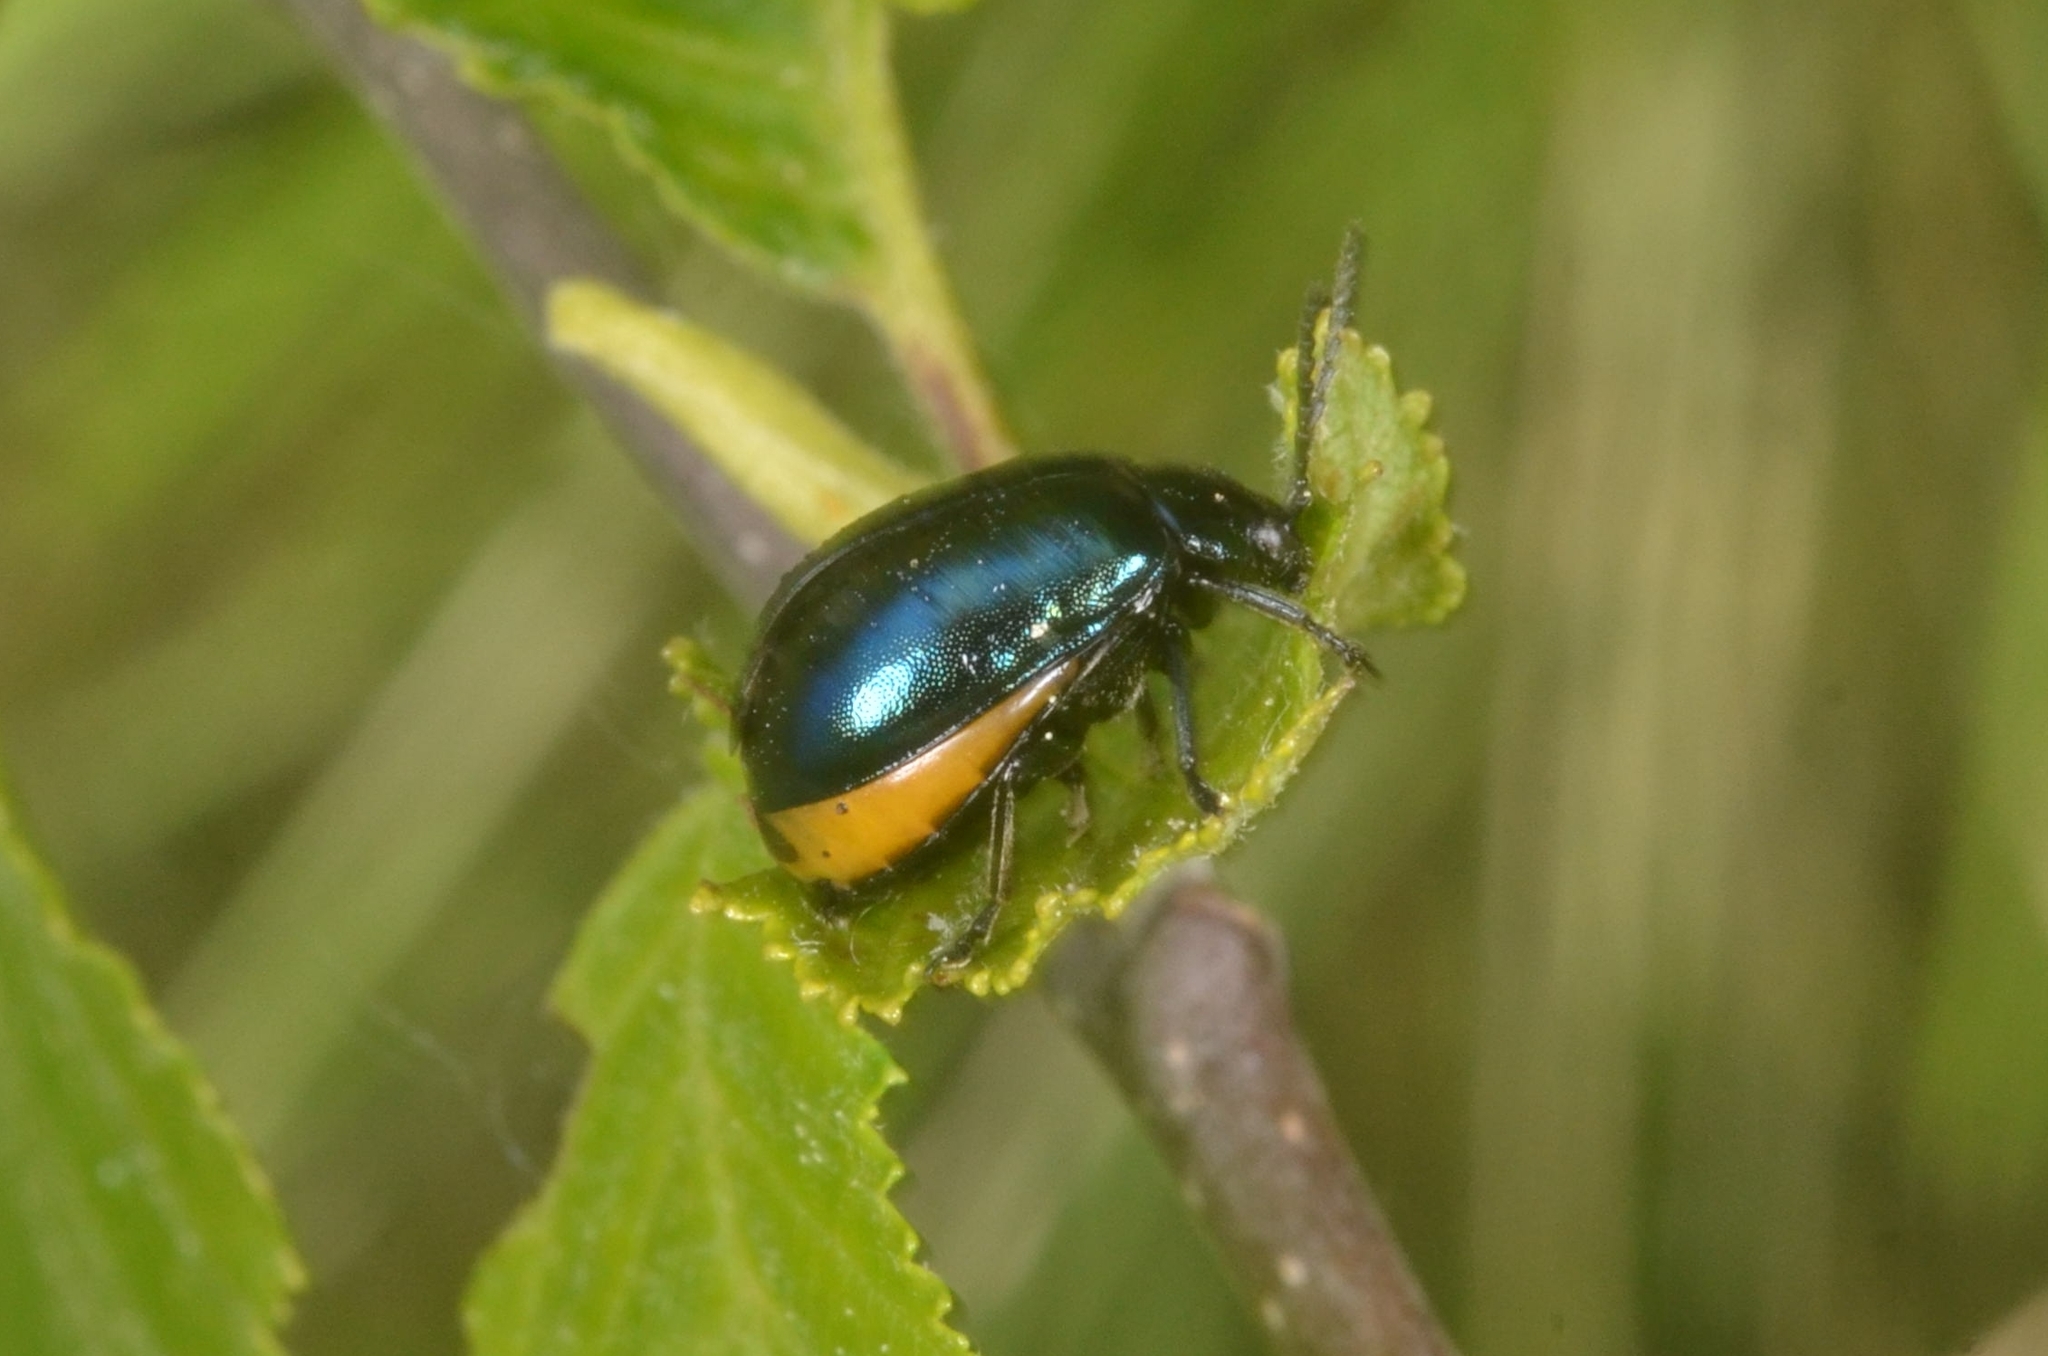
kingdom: Animalia
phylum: Arthropoda
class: Insecta
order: Coleoptera
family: Chrysomelidae
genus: Agelastica
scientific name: Agelastica alni
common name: Alder leaf beetle
